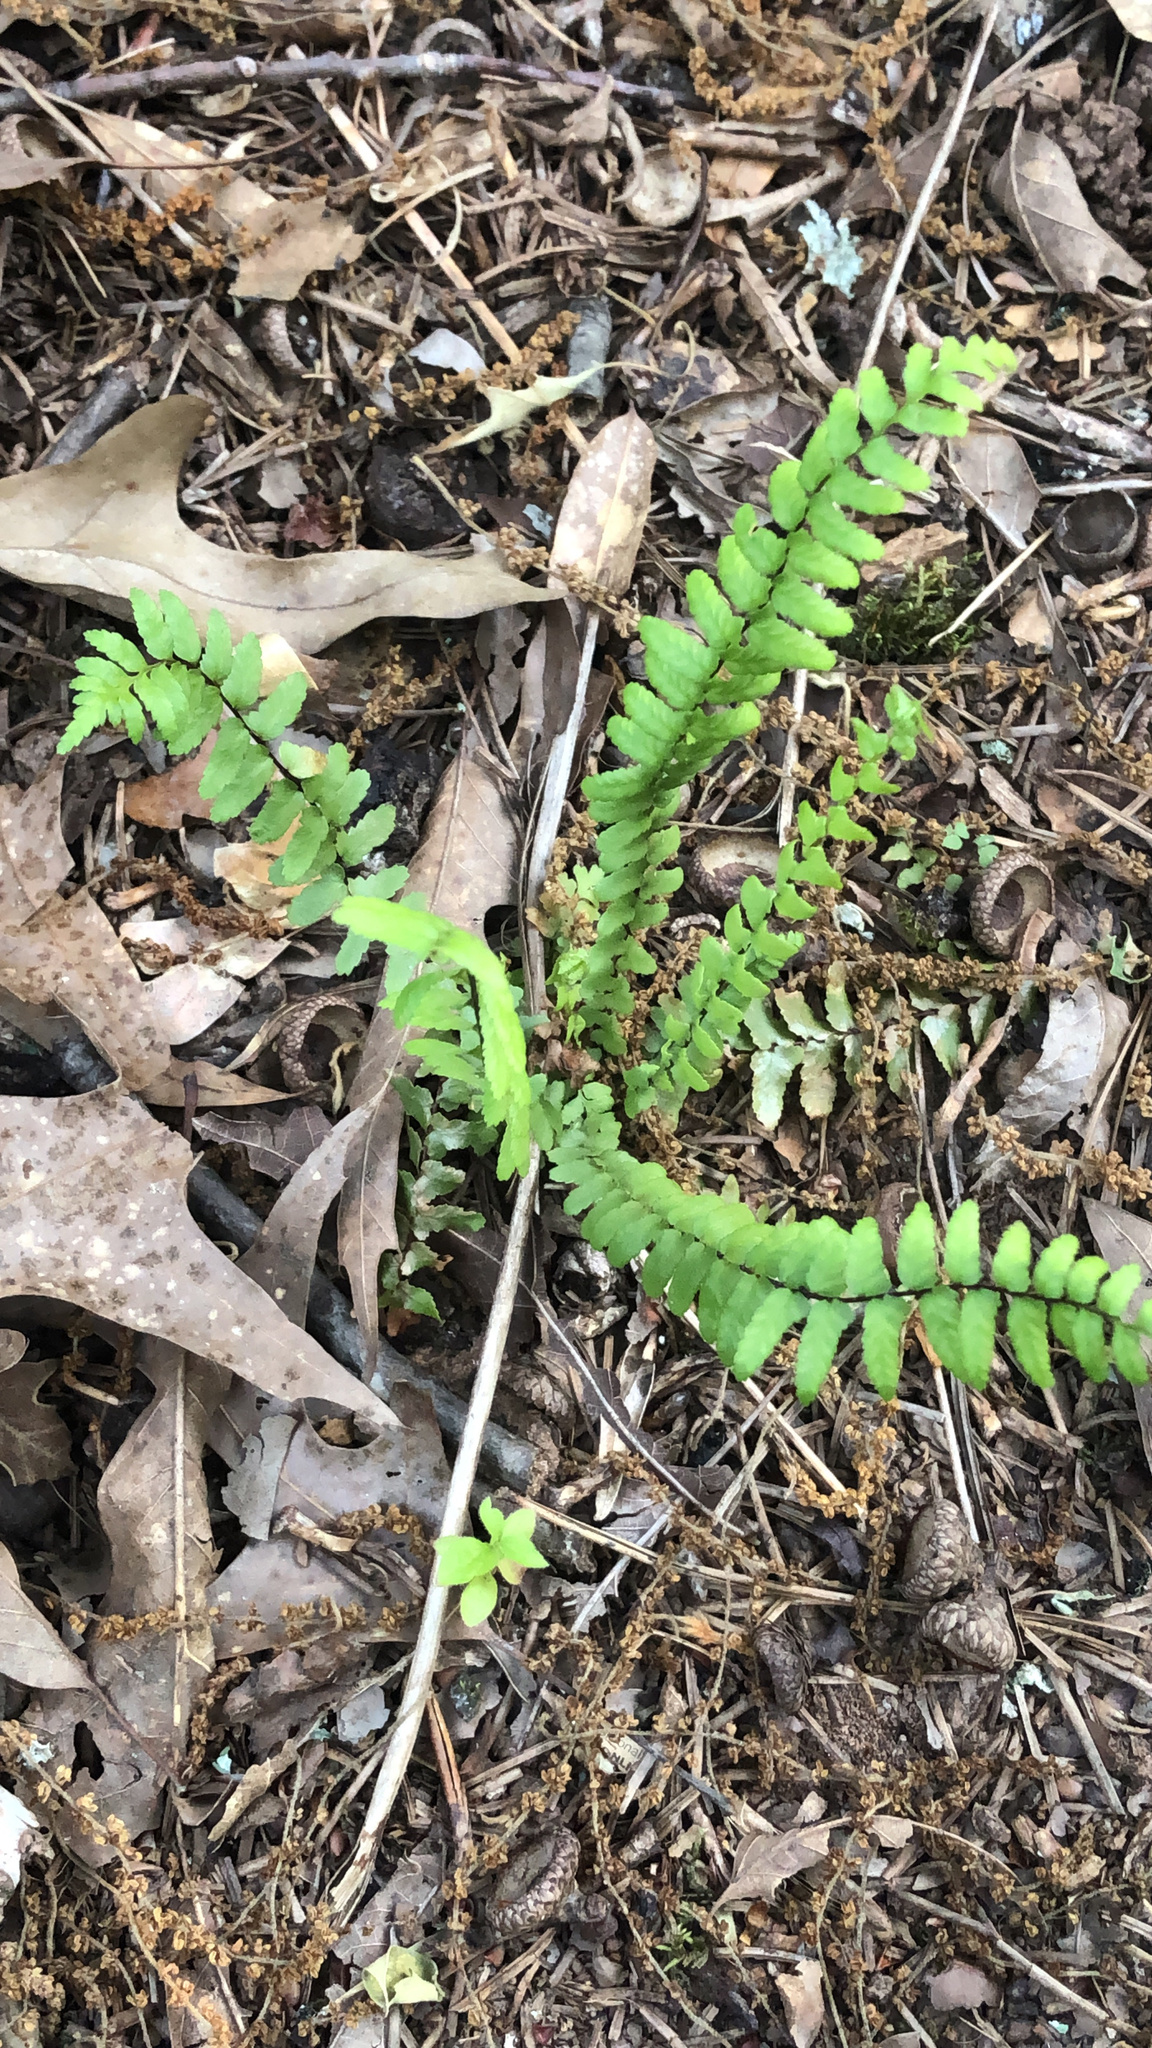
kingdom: Plantae
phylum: Tracheophyta
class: Polypodiopsida
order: Polypodiales
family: Aspleniaceae
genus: Asplenium
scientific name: Asplenium platyneuron
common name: Ebony spleenwort
